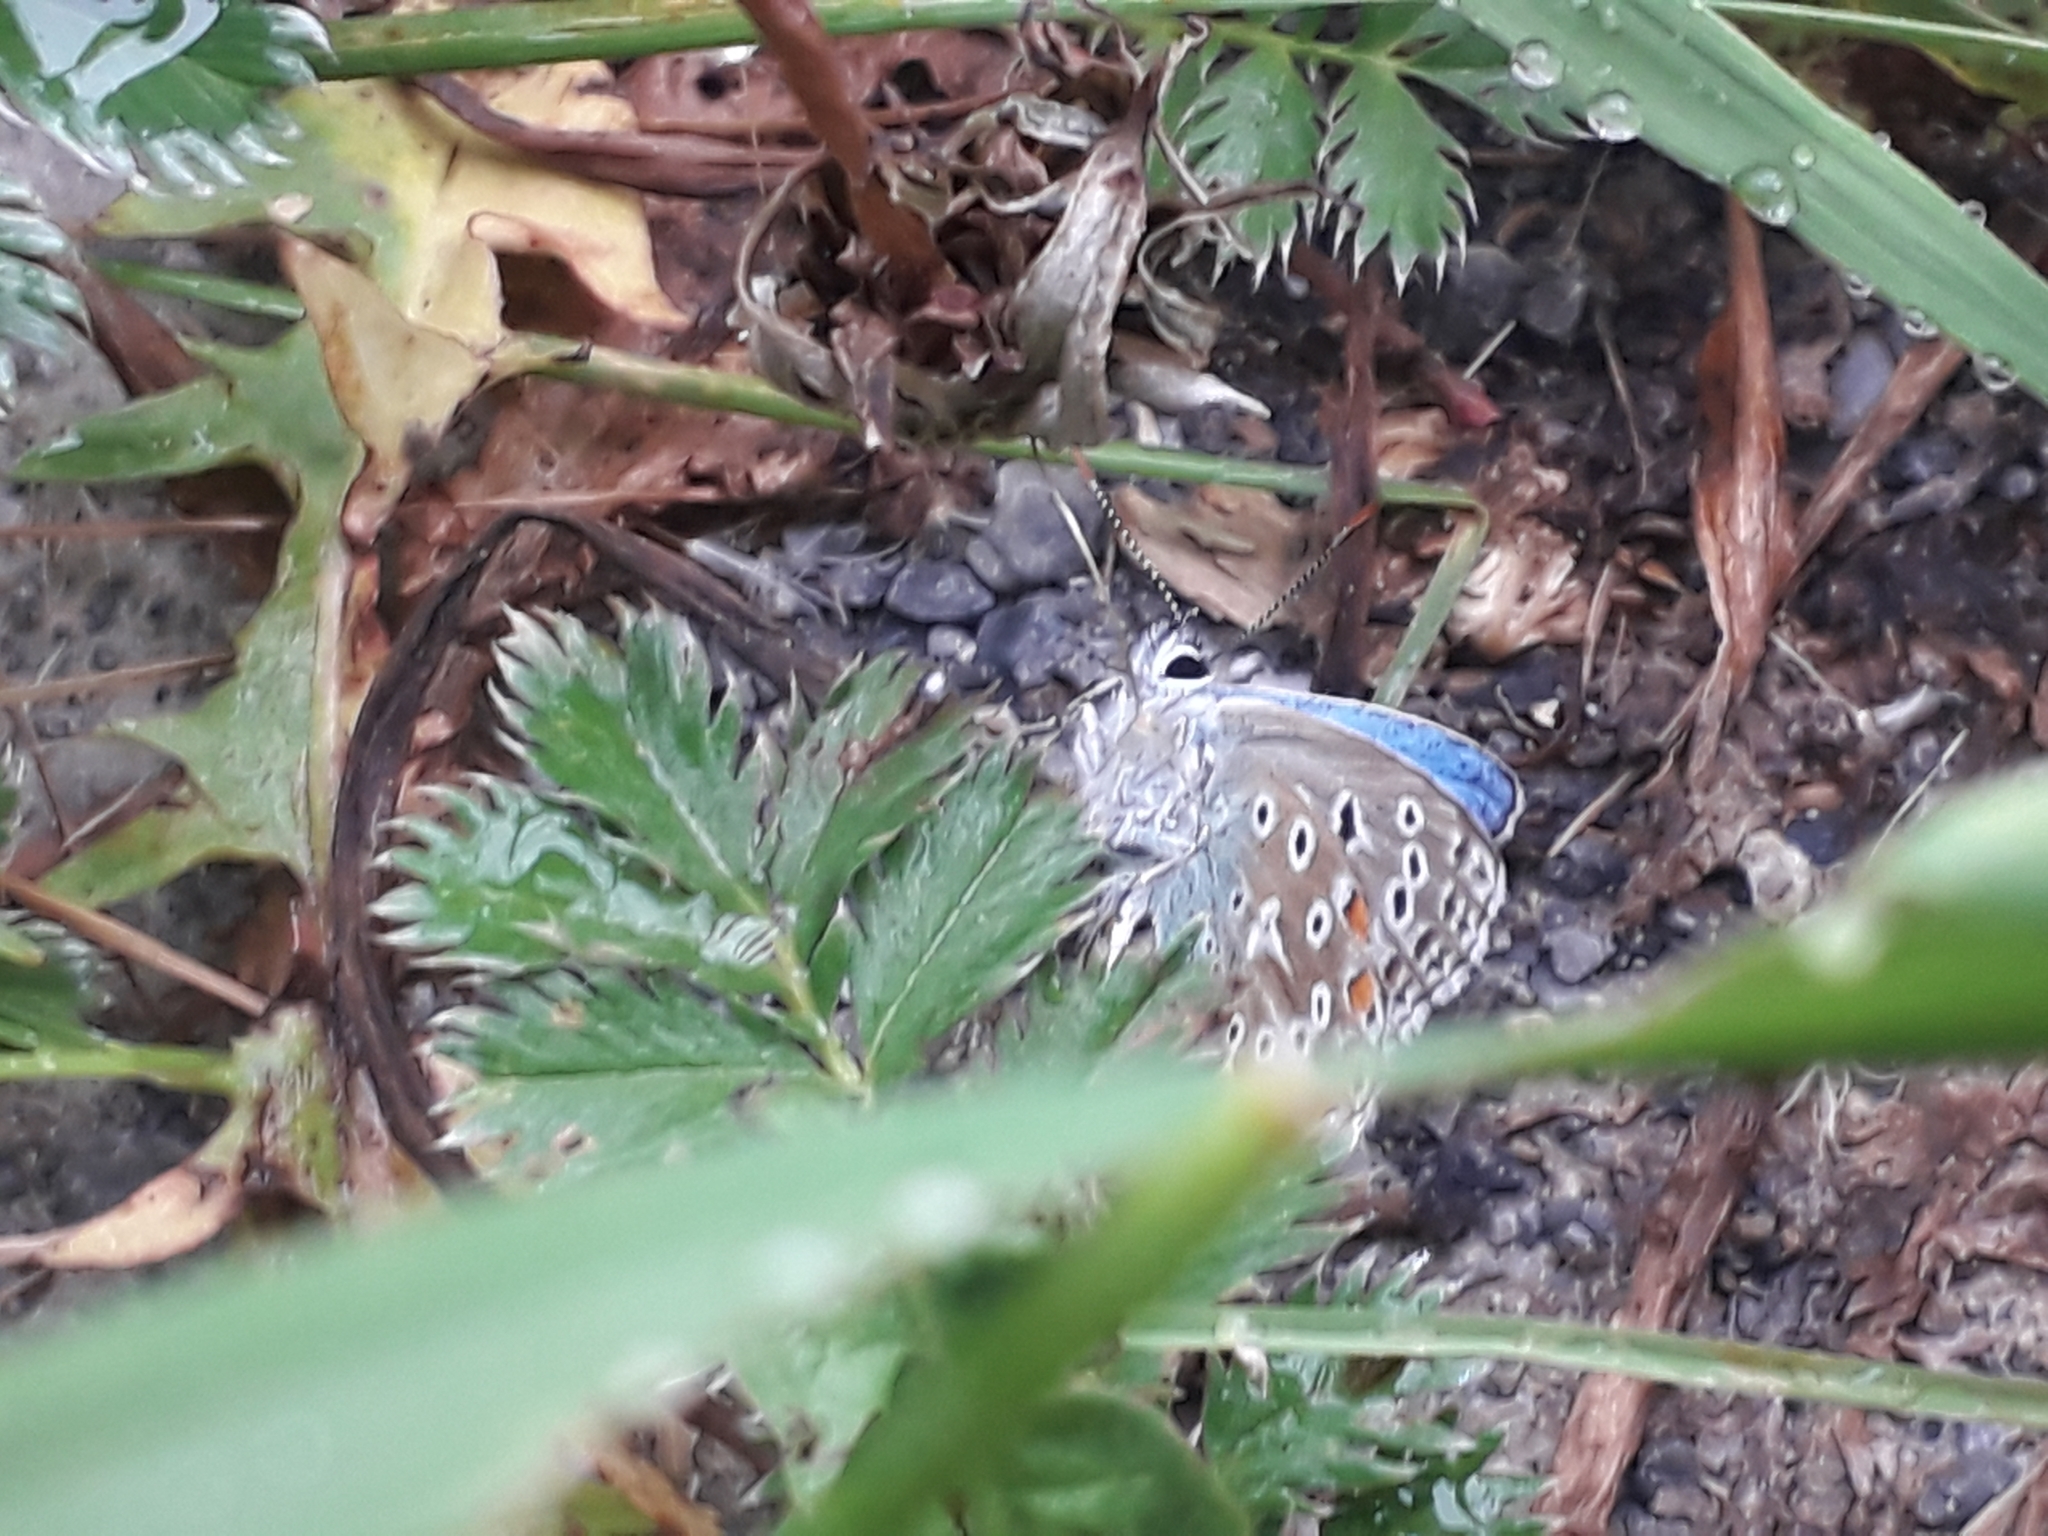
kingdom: Animalia
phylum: Arthropoda
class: Insecta
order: Lepidoptera
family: Lycaenidae
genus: Lysandra
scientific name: Lysandra bellargus
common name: Adonis blue
